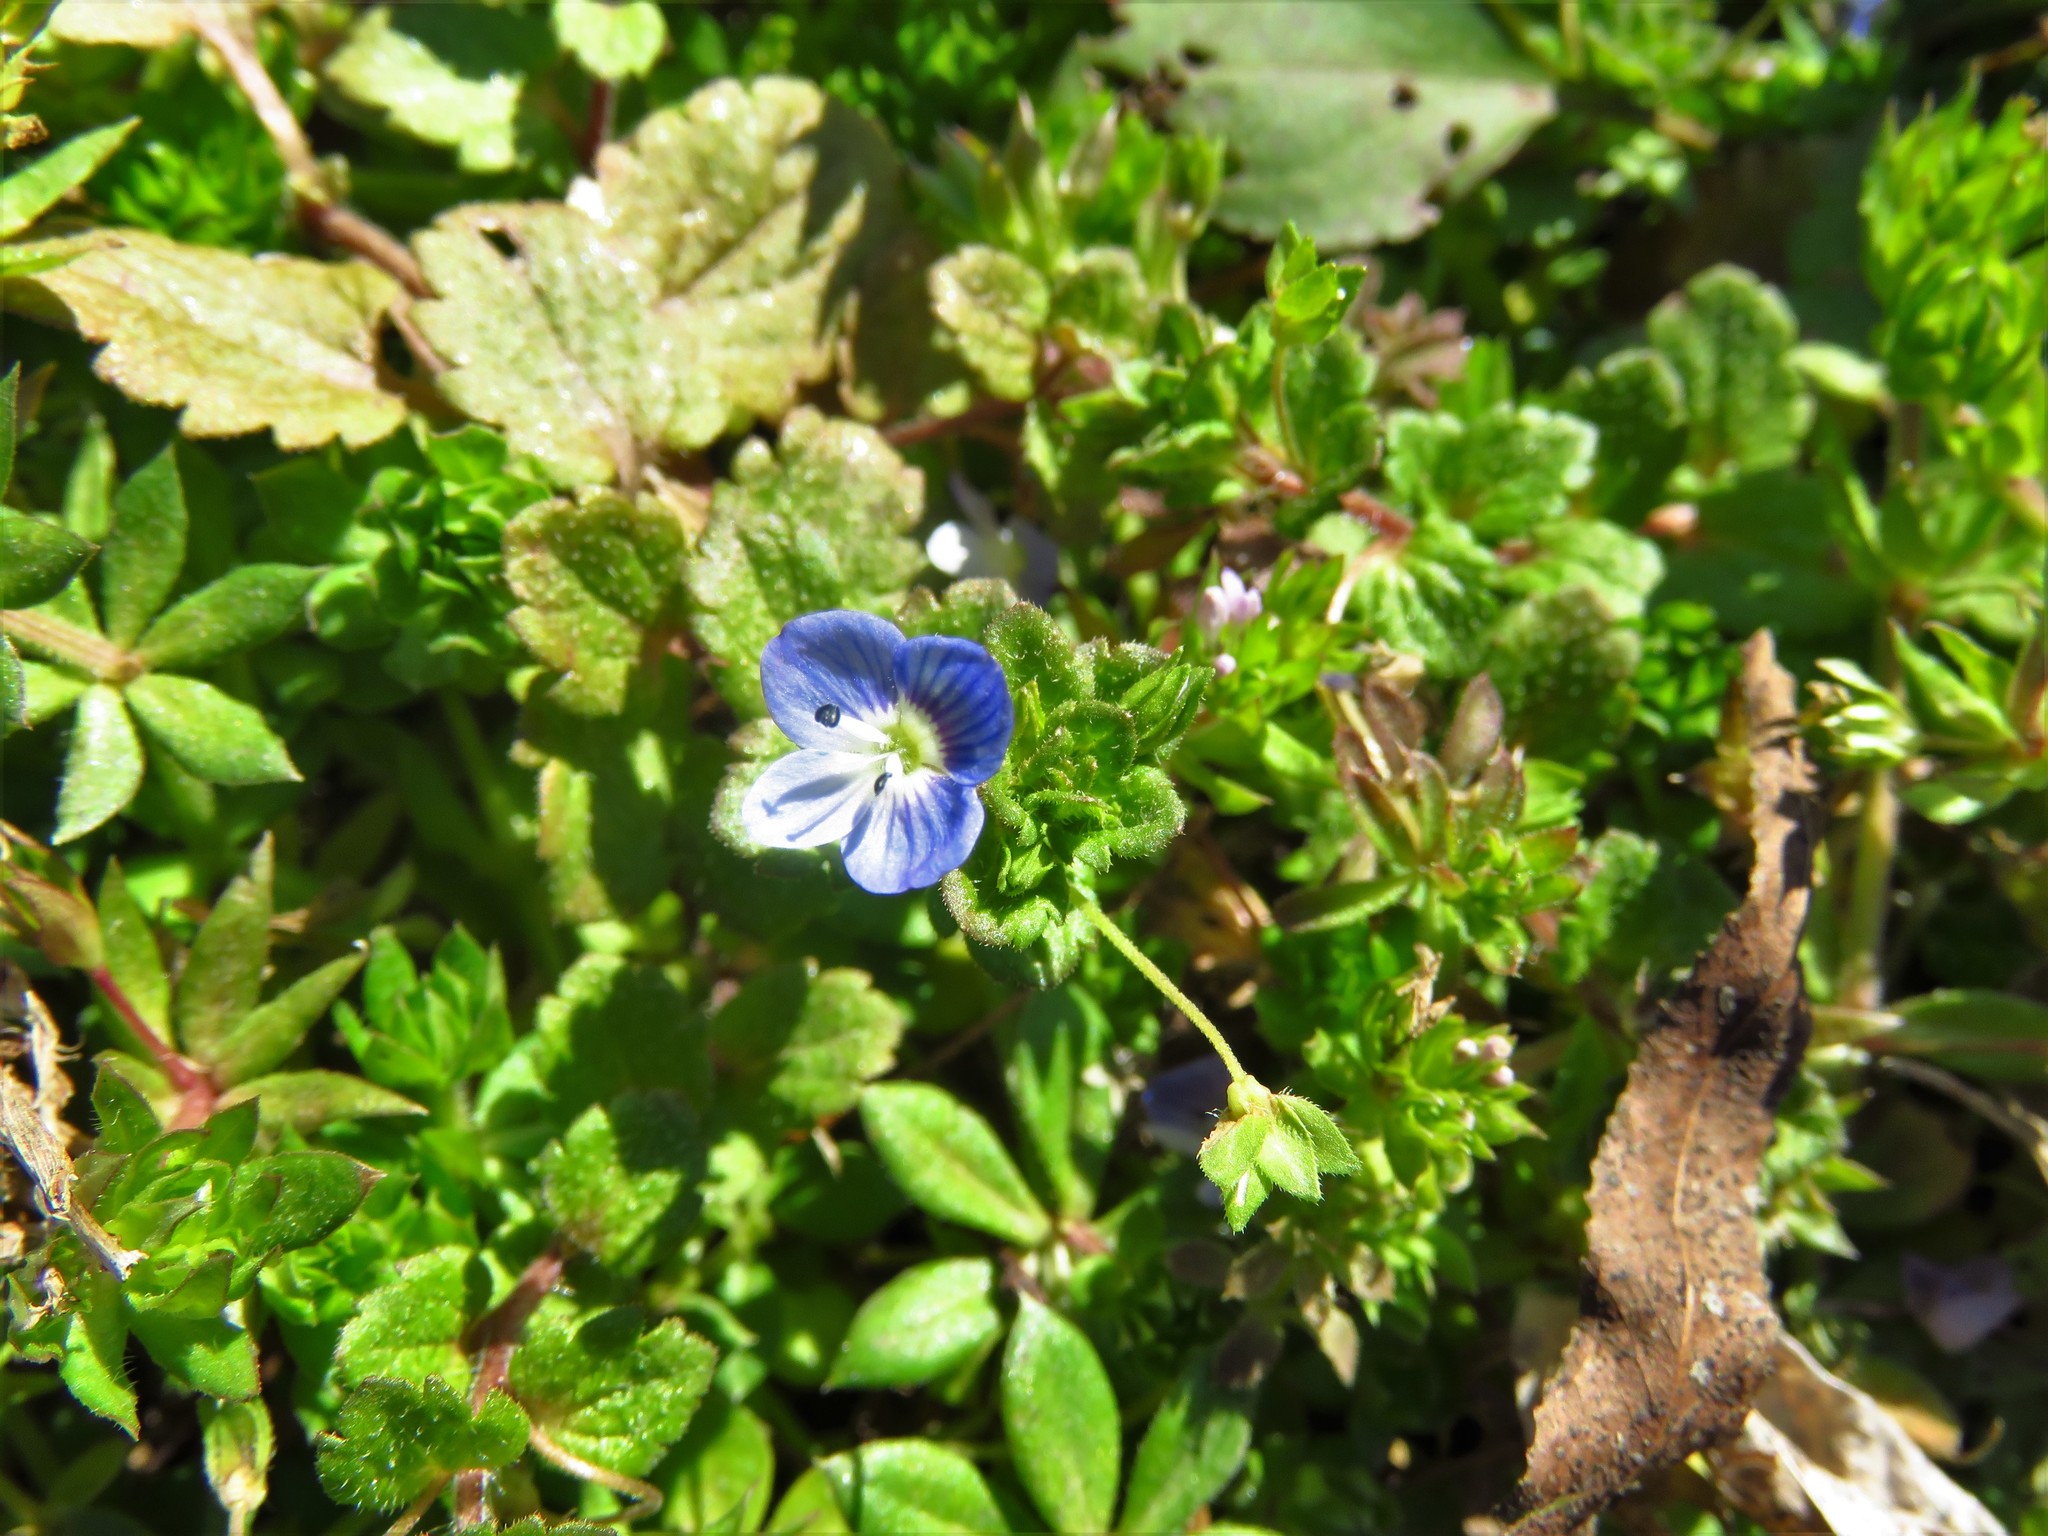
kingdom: Plantae
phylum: Tracheophyta
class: Magnoliopsida
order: Lamiales
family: Plantaginaceae
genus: Veronica
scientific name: Veronica persica
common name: Common field-speedwell
